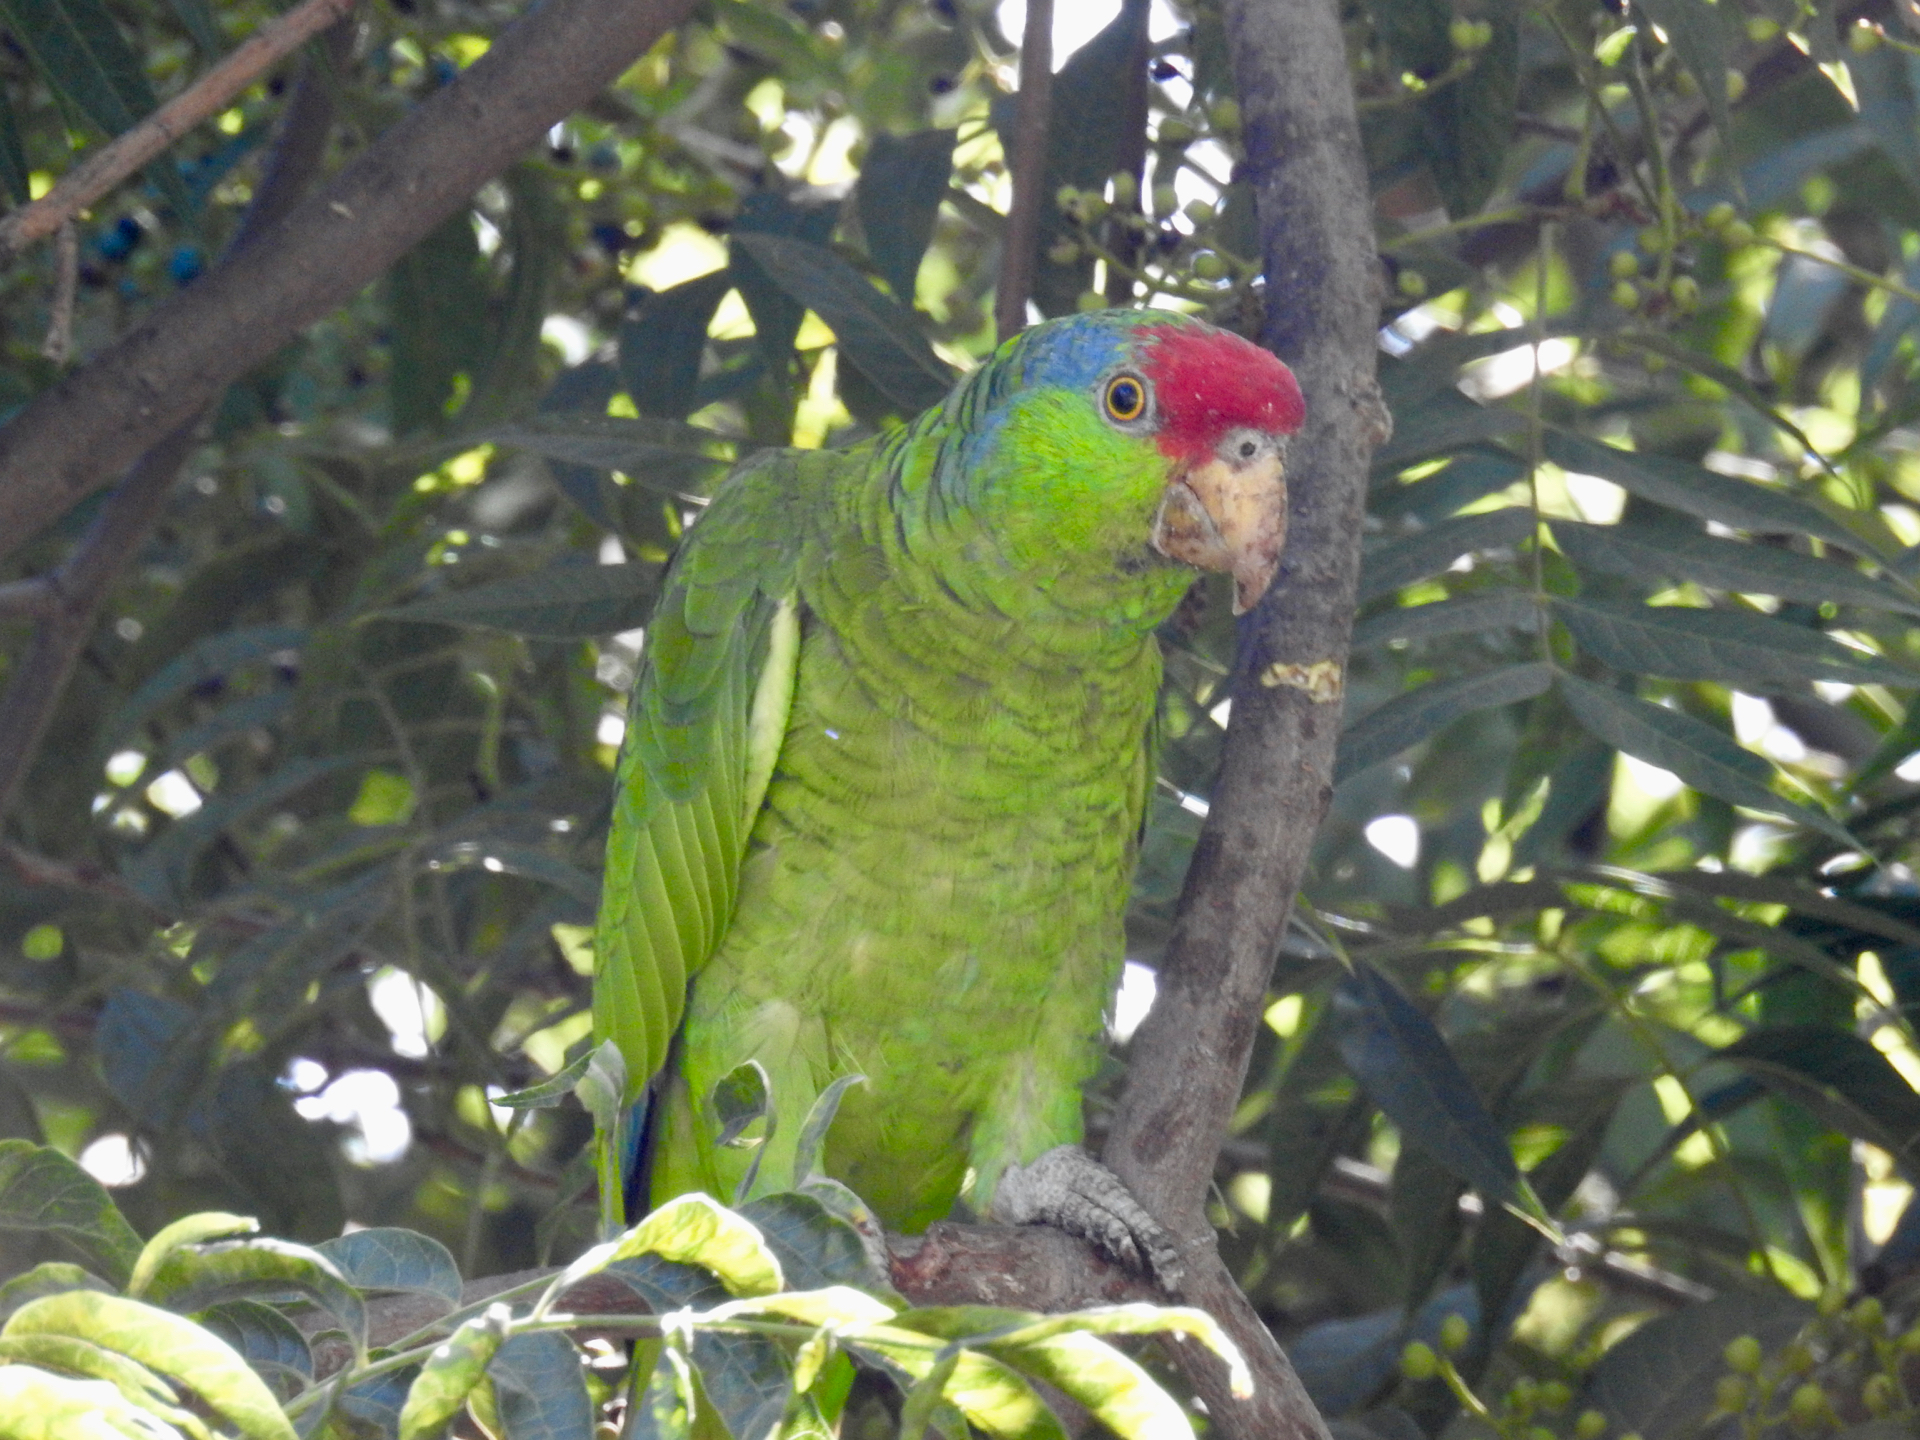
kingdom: Animalia
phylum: Chordata
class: Aves
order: Psittaciformes
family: Psittacidae
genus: Amazona
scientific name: Amazona viridigenalis
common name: Red-crowned amazon
